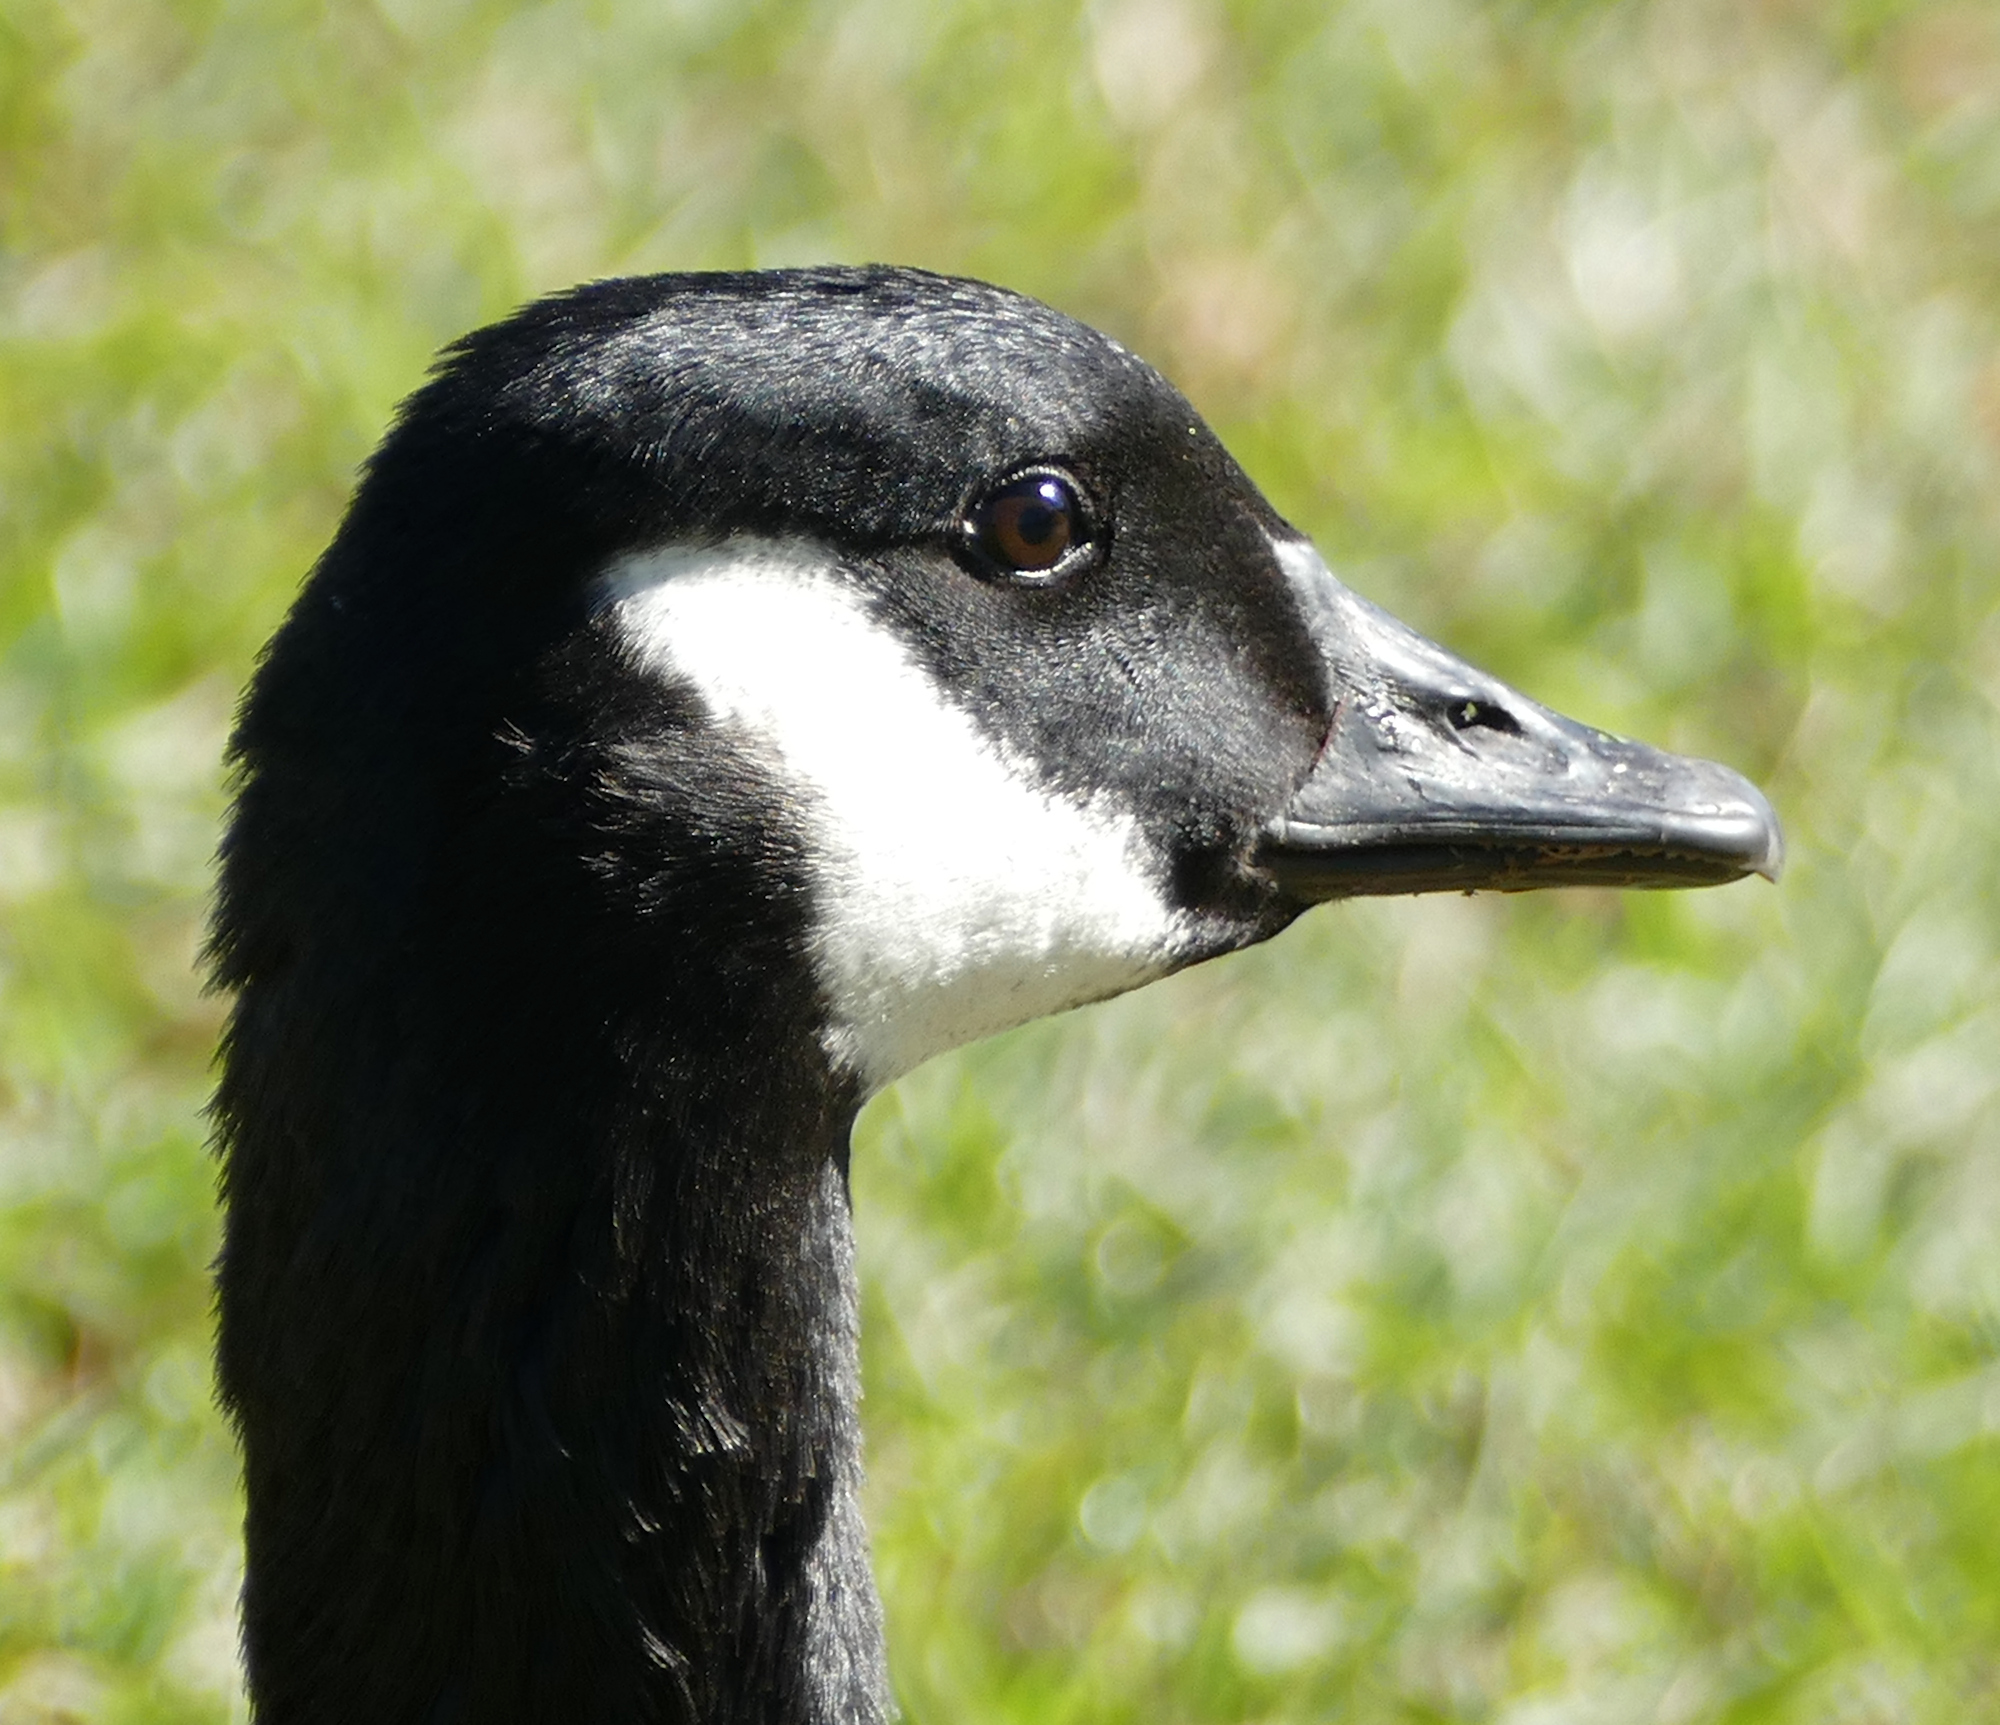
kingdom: Animalia
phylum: Chordata
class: Aves
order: Anseriformes
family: Anatidae
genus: Branta
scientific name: Branta canadensis
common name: Canada goose
